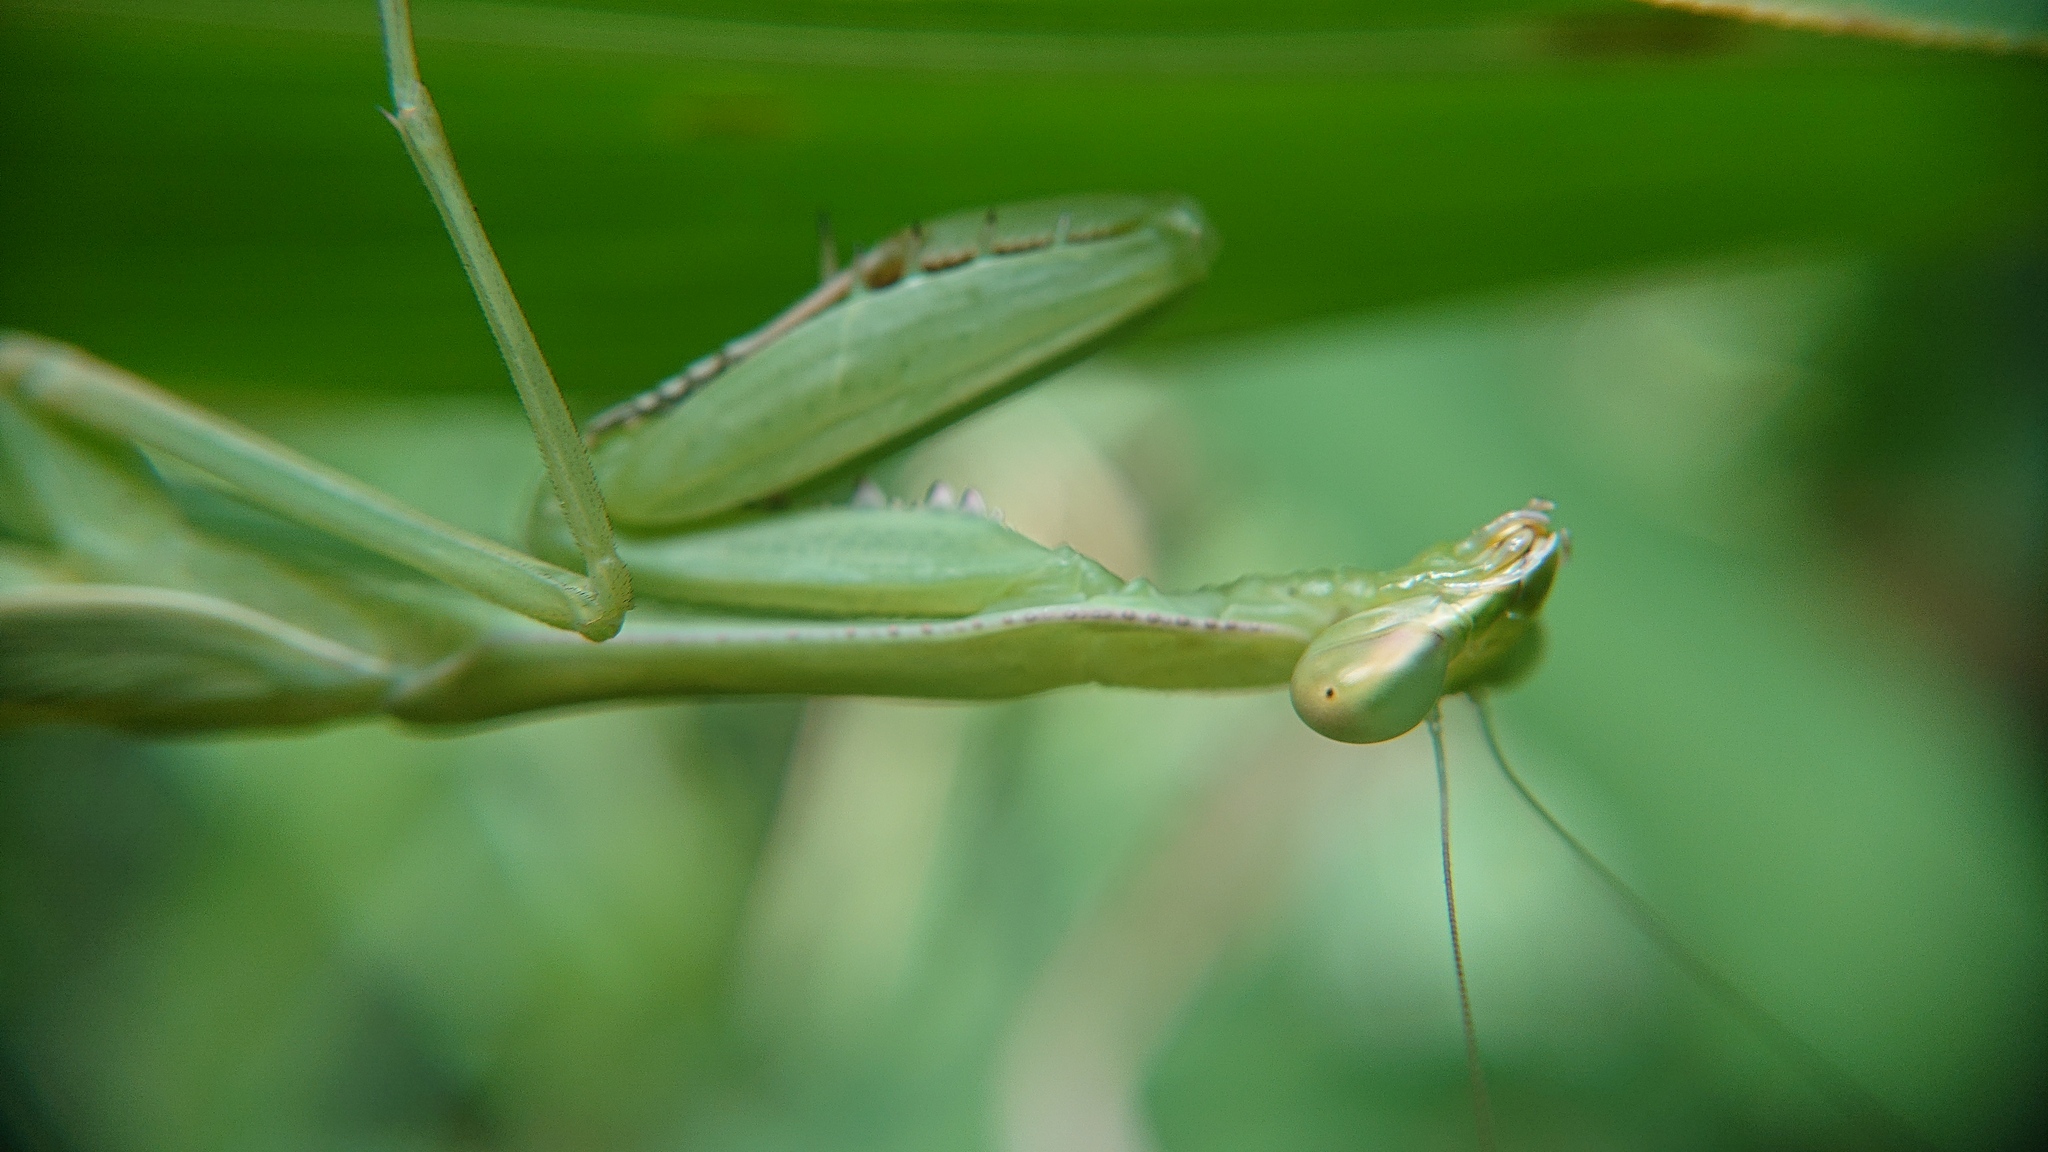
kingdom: Animalia
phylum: Arthropoda
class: Insecta
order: Mantodea
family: Mantidae
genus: Stagmomantis
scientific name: Stagmomantis theophila
